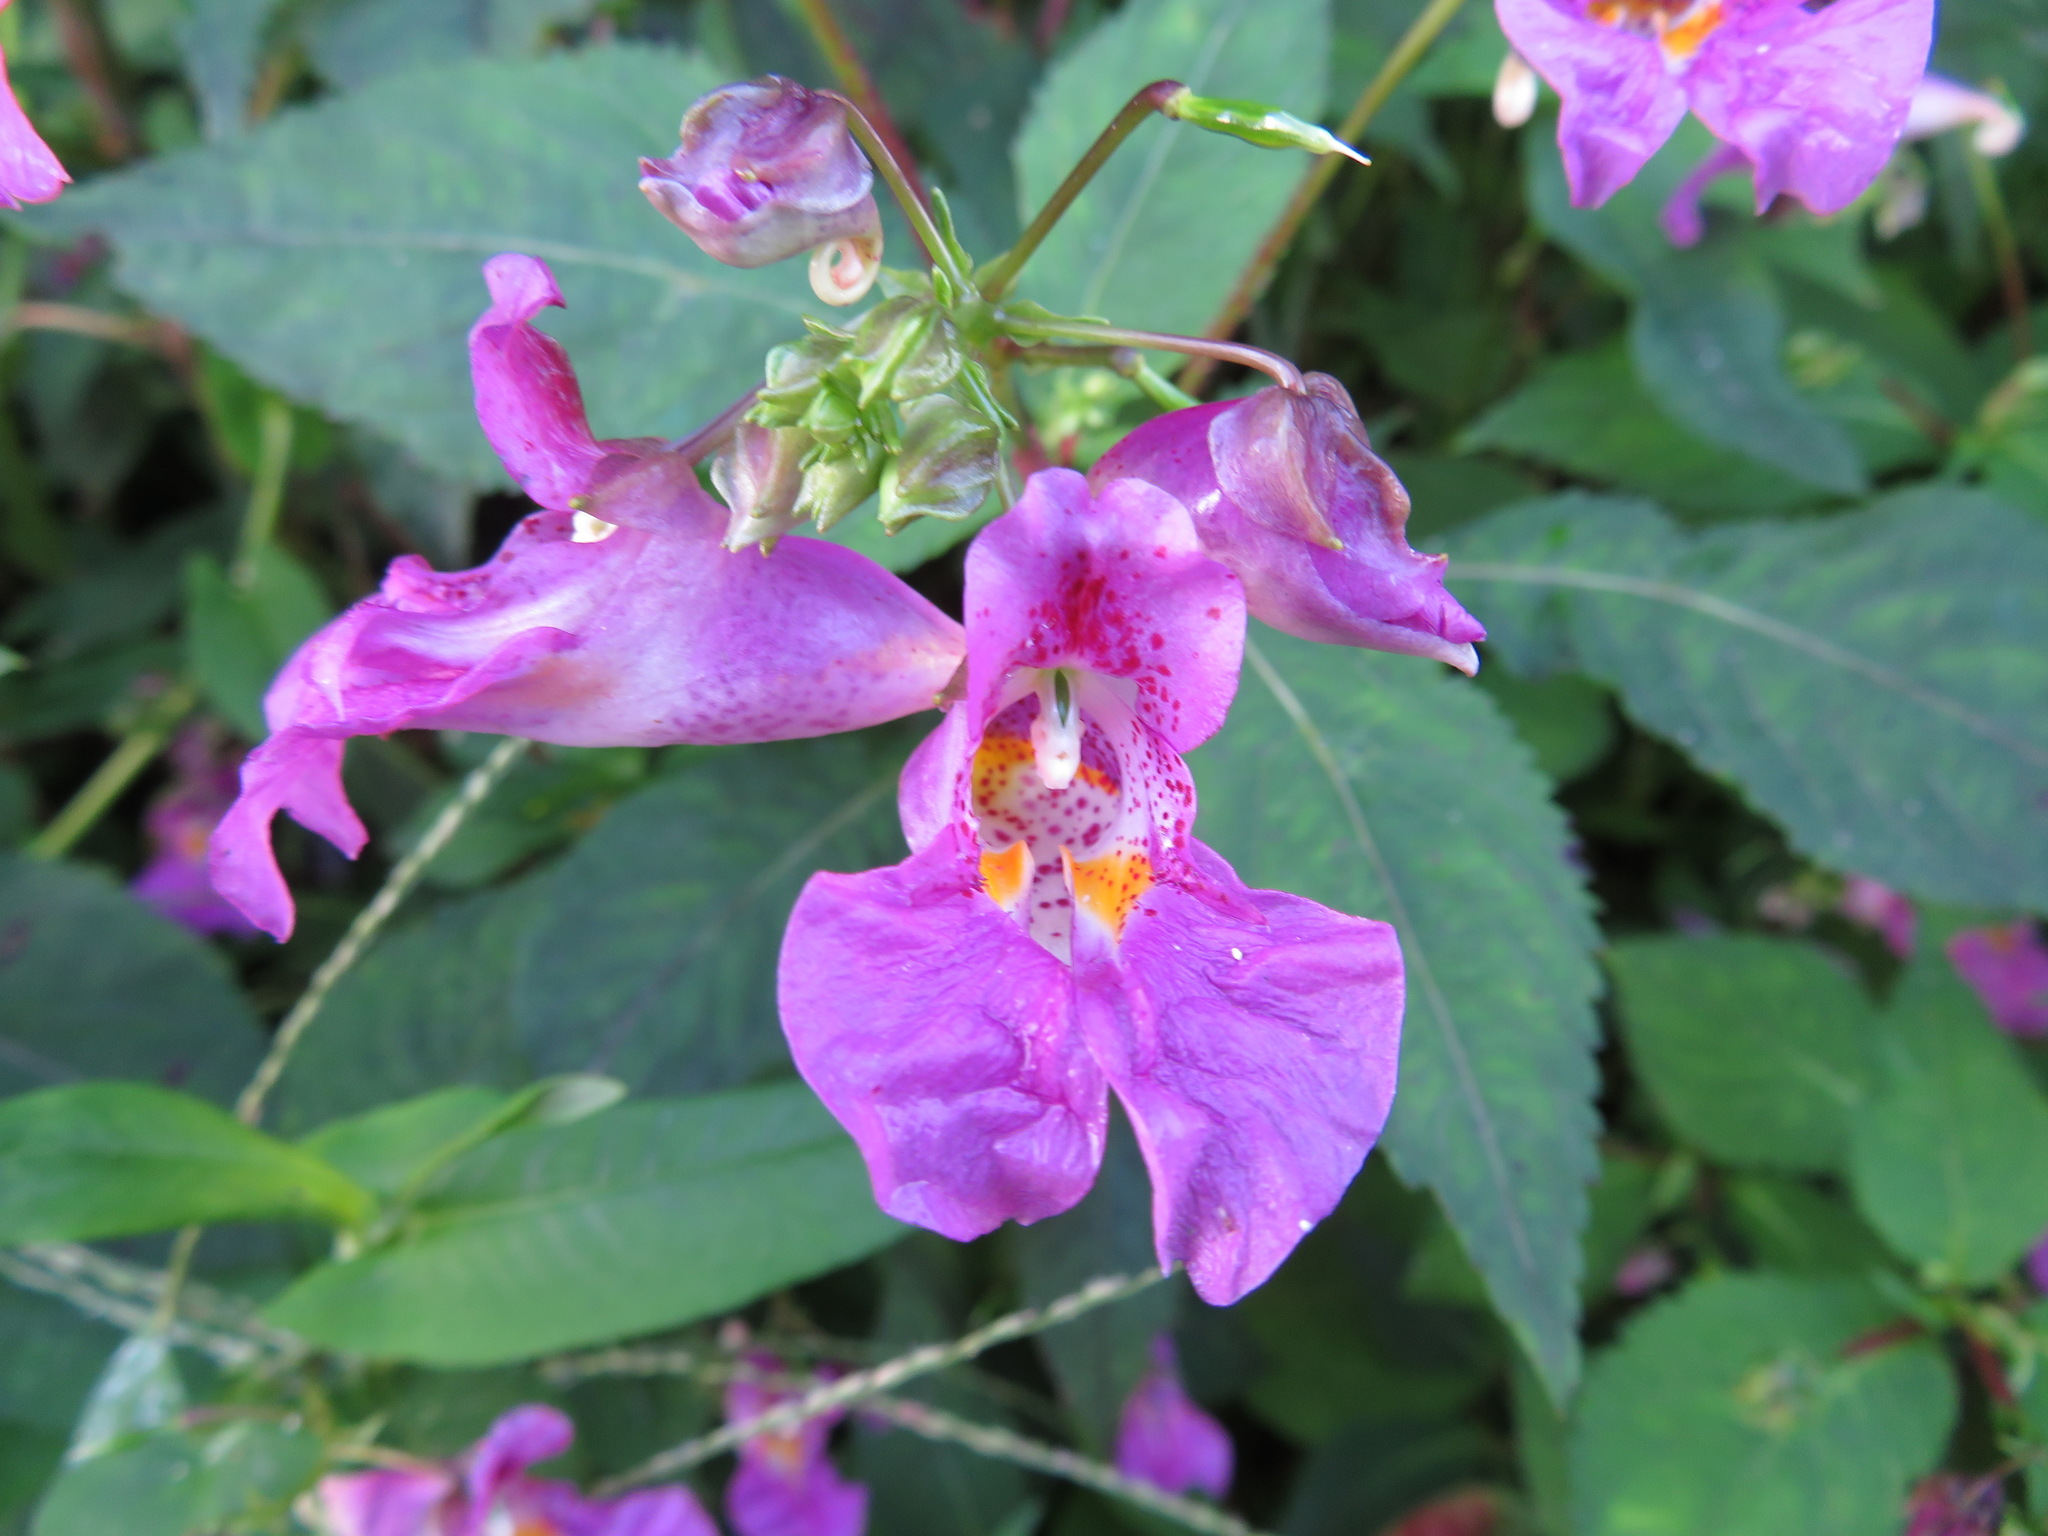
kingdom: Plantae
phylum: Tracheophyta
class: Magnoliopsida
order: Ericales
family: Balsaminaceae
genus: Impatiens
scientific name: Impatiens textorii
